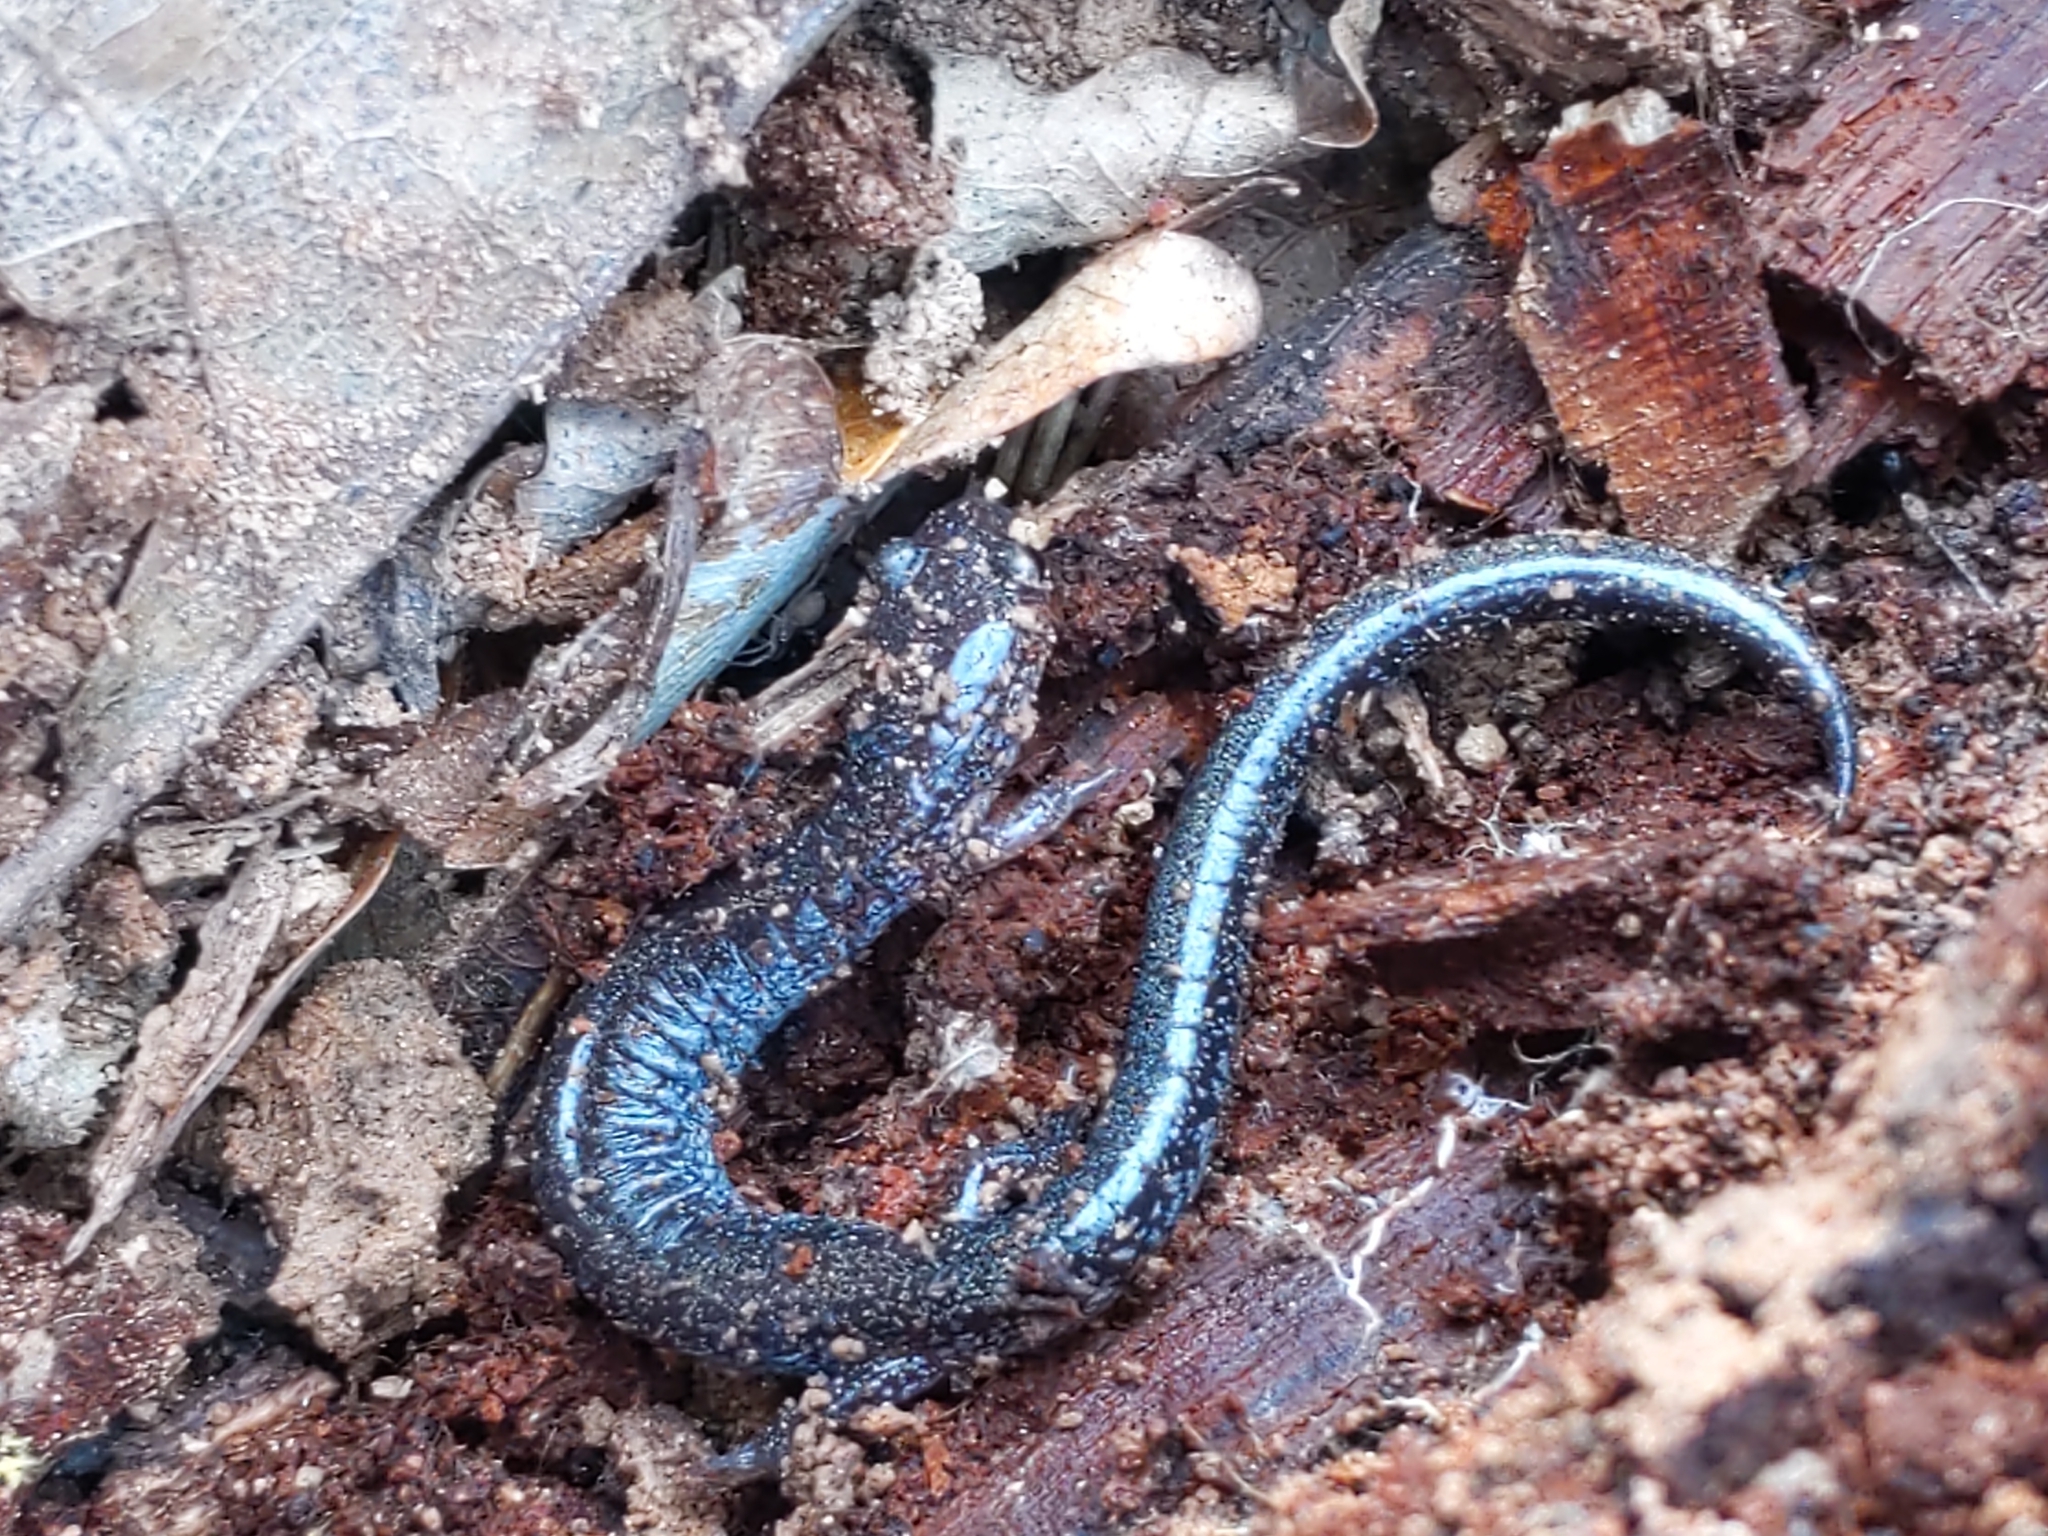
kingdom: Animalia
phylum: Chordata
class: Amphibia
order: Caudata
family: Plethodontidae
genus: Plethodon
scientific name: Plethodon cinereus
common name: Redback salamander
